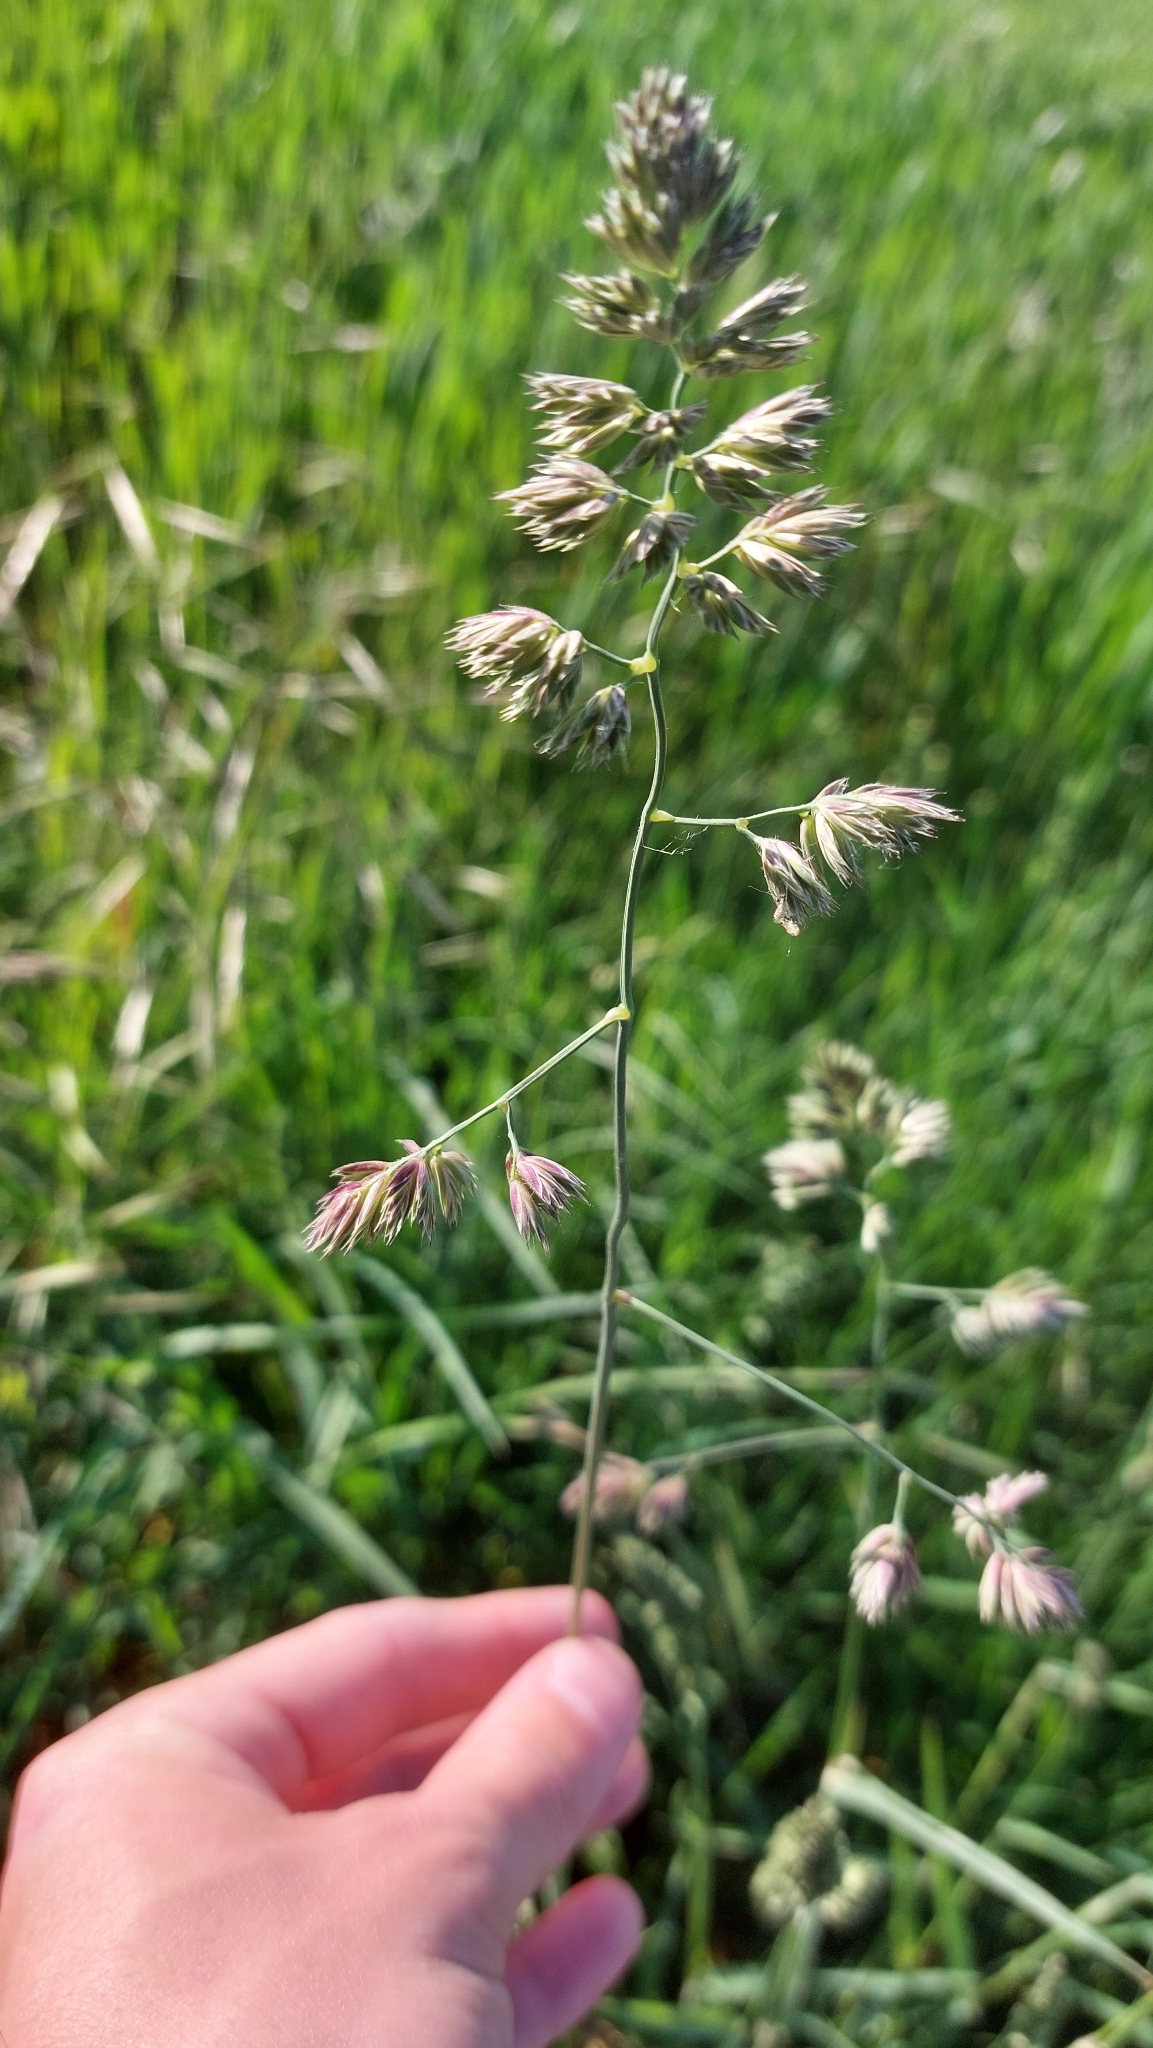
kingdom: Plantae
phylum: Tracheophyta
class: Liliopsida
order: Poales
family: Poaceae
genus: Dactylis
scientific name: Dactylis glomerata
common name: Orchardgrass
